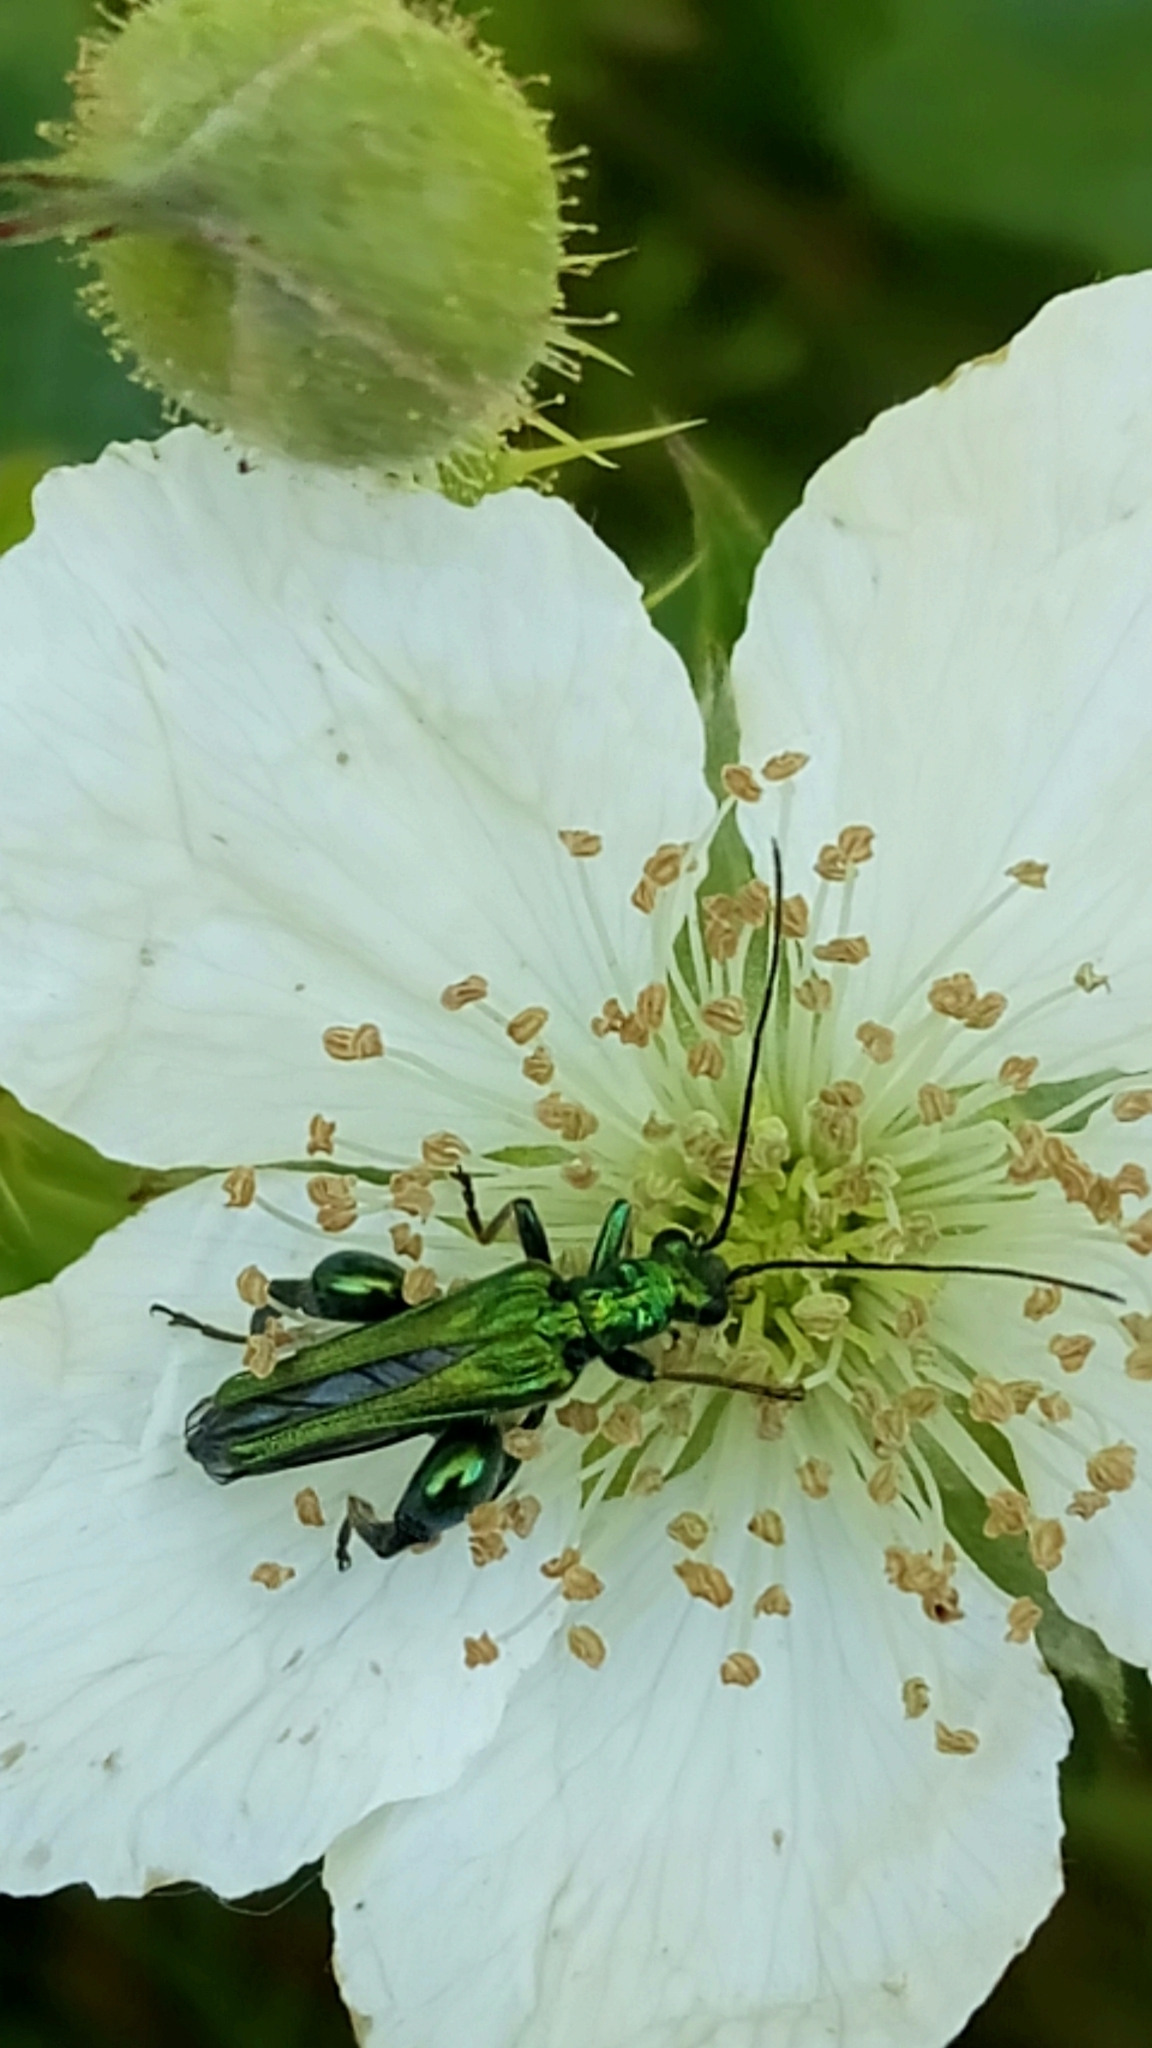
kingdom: Animalia
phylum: Arthropoda
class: Insecta
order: Coleoptera
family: Oedemeridae
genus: Oedemera
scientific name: Oedemera nobilis
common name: Swollen-thighed beetle
